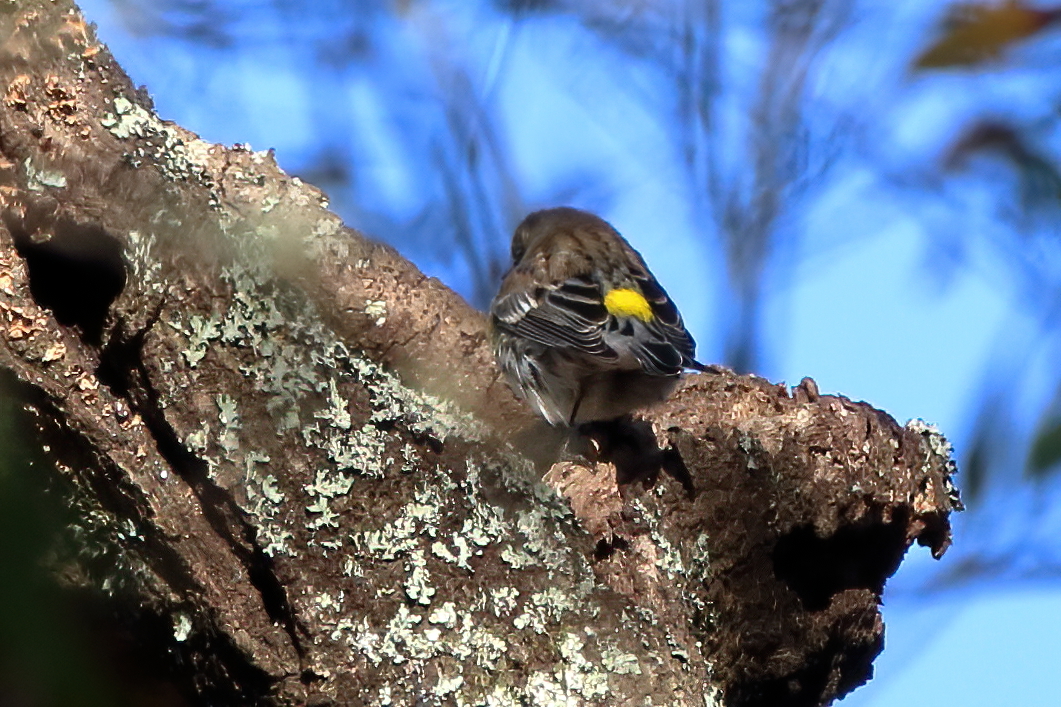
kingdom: Animalia
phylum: Chordata
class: Aves
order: Passeriformes
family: Parulidae
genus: Setophaga
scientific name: Setophaga coronata
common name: Myrtle warbler
